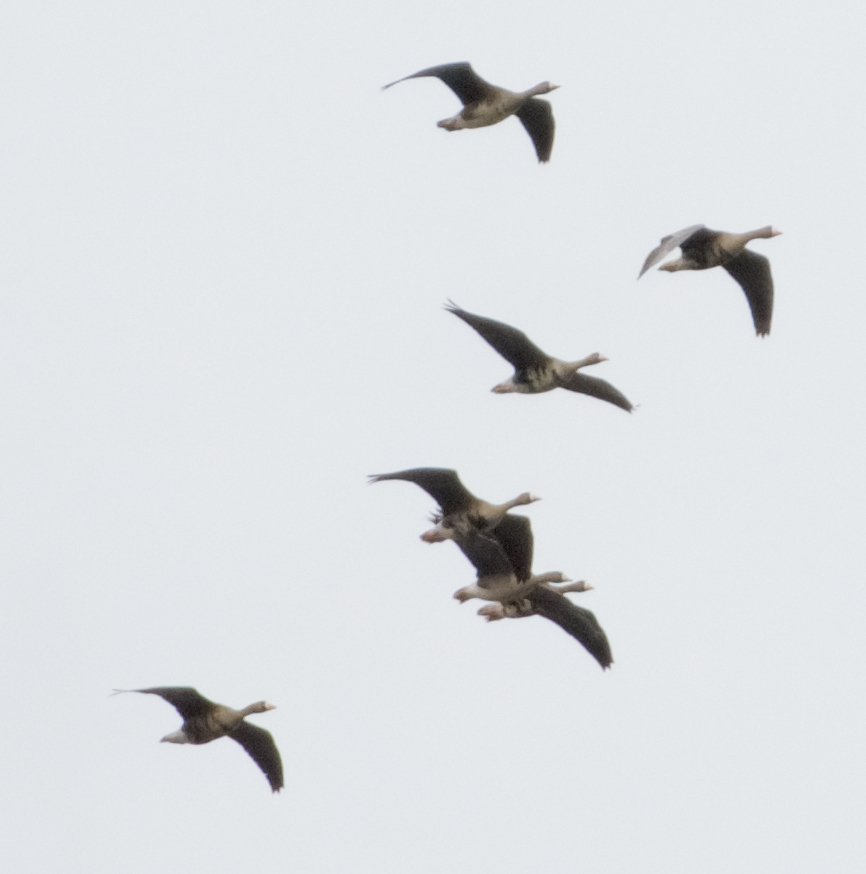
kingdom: Animalia
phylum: Chordata
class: Aves
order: Anseriformes
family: Anatidae
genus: Anser
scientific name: Anser albifrons
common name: Greater white-fronted goose
